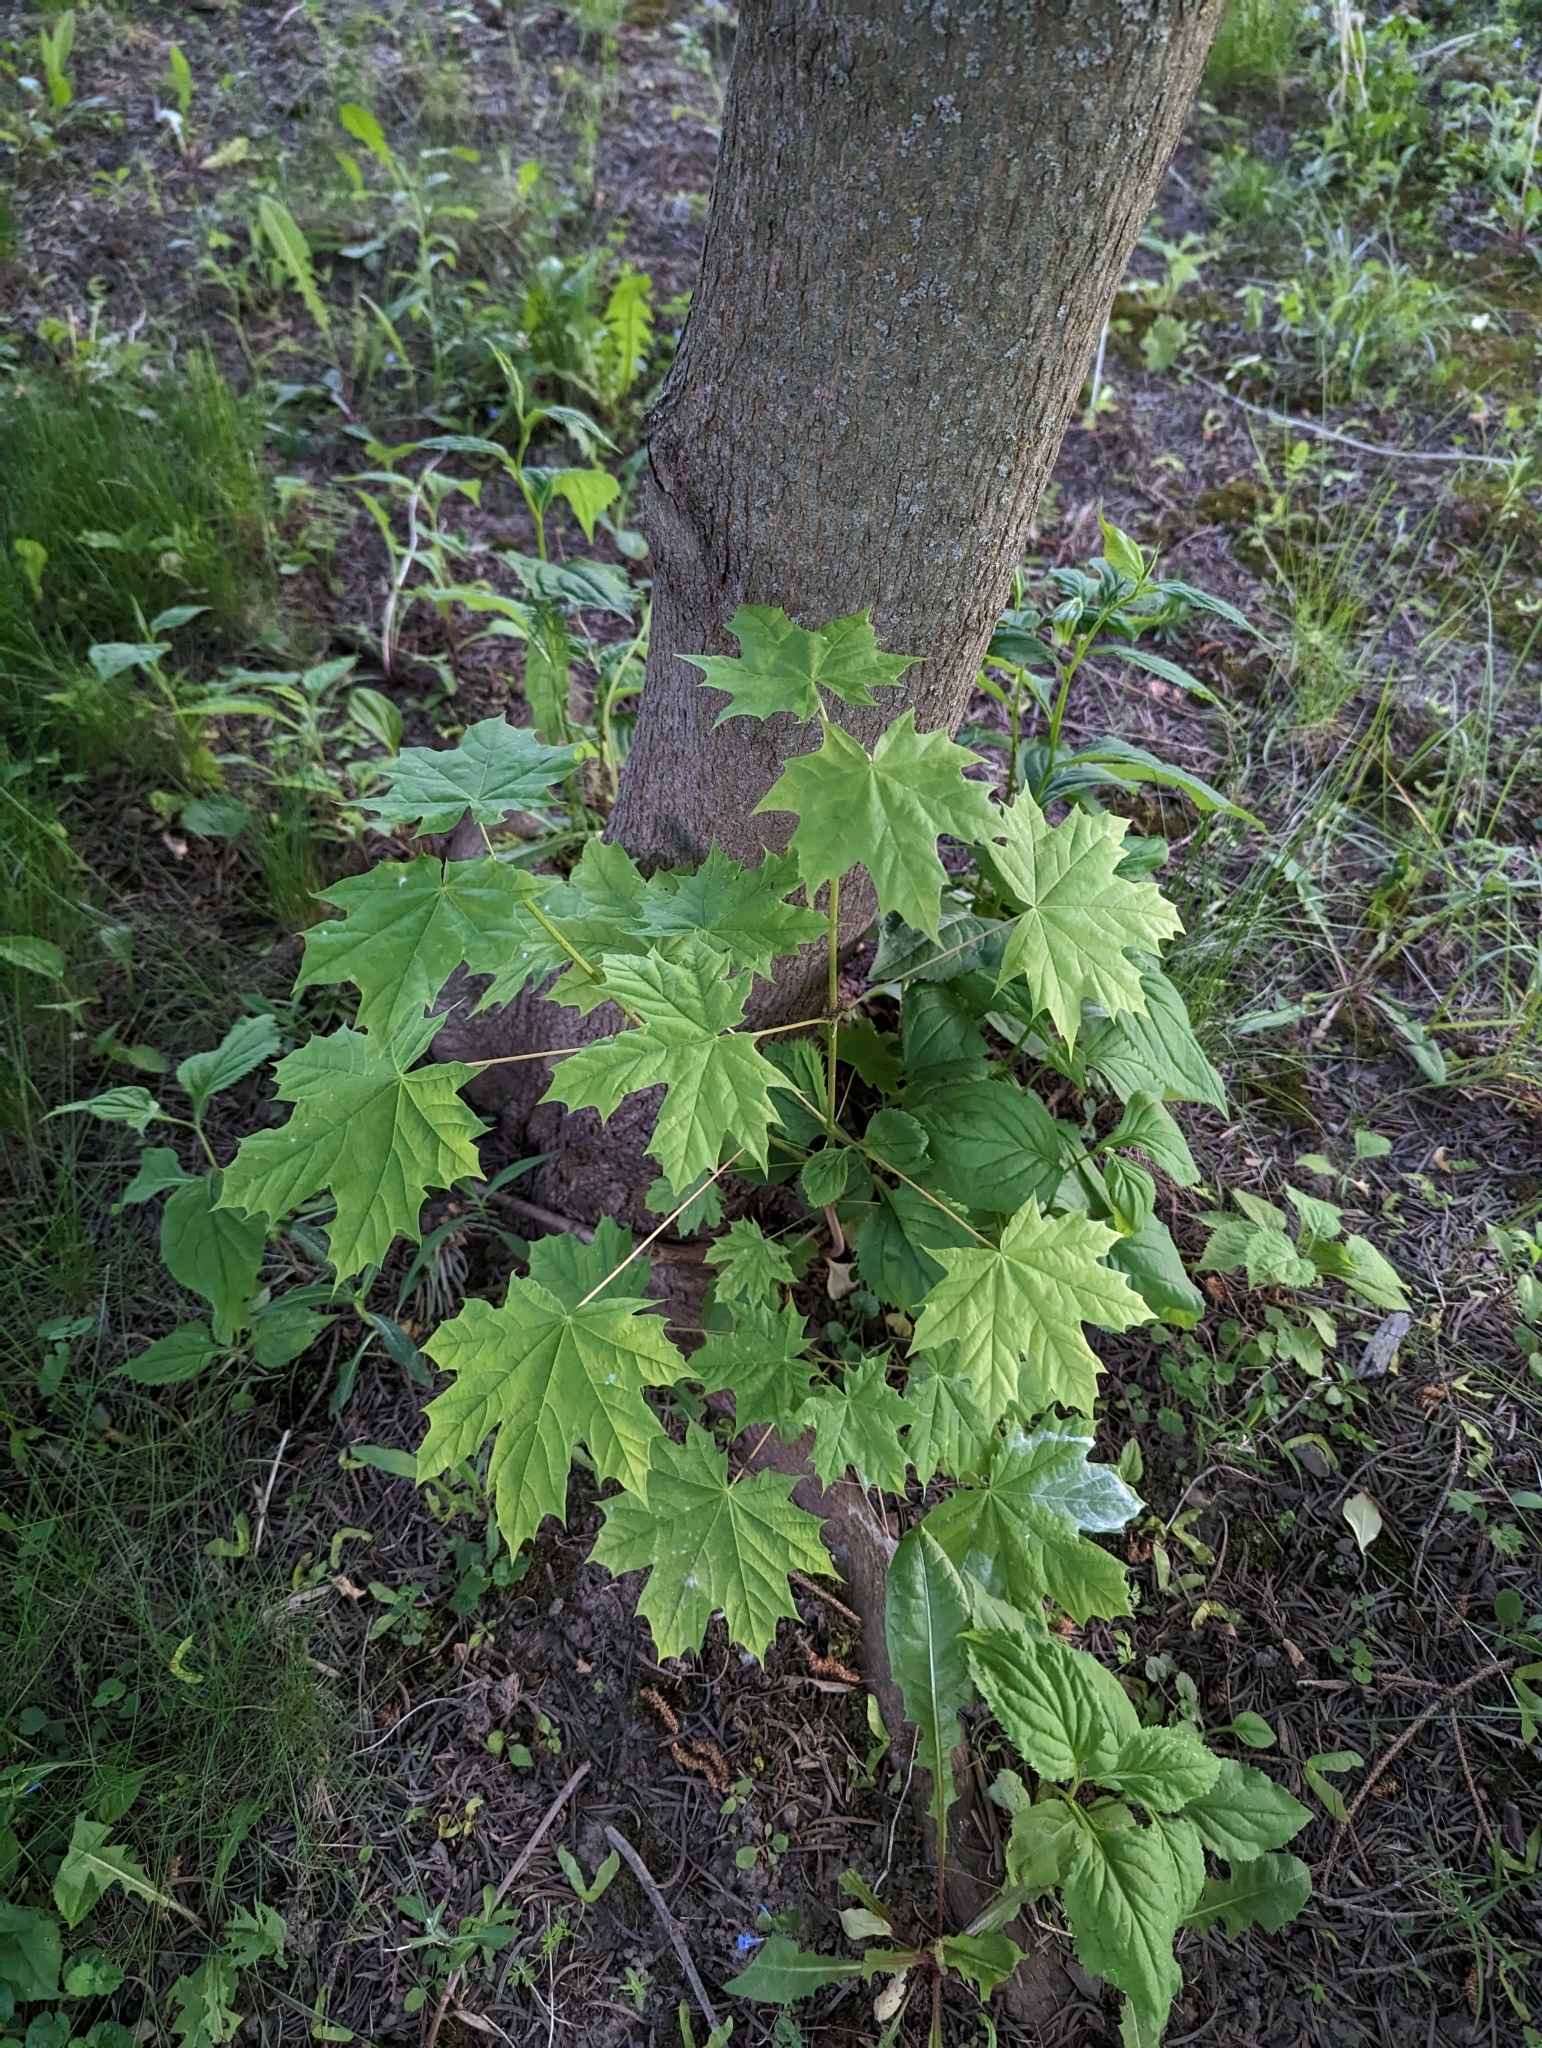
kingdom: Plantae
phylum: Tracheophyta
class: Magnoliopsida
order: Sapindales
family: Sapindaceae
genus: Acer
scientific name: Acer platanoides
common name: Norway maple
